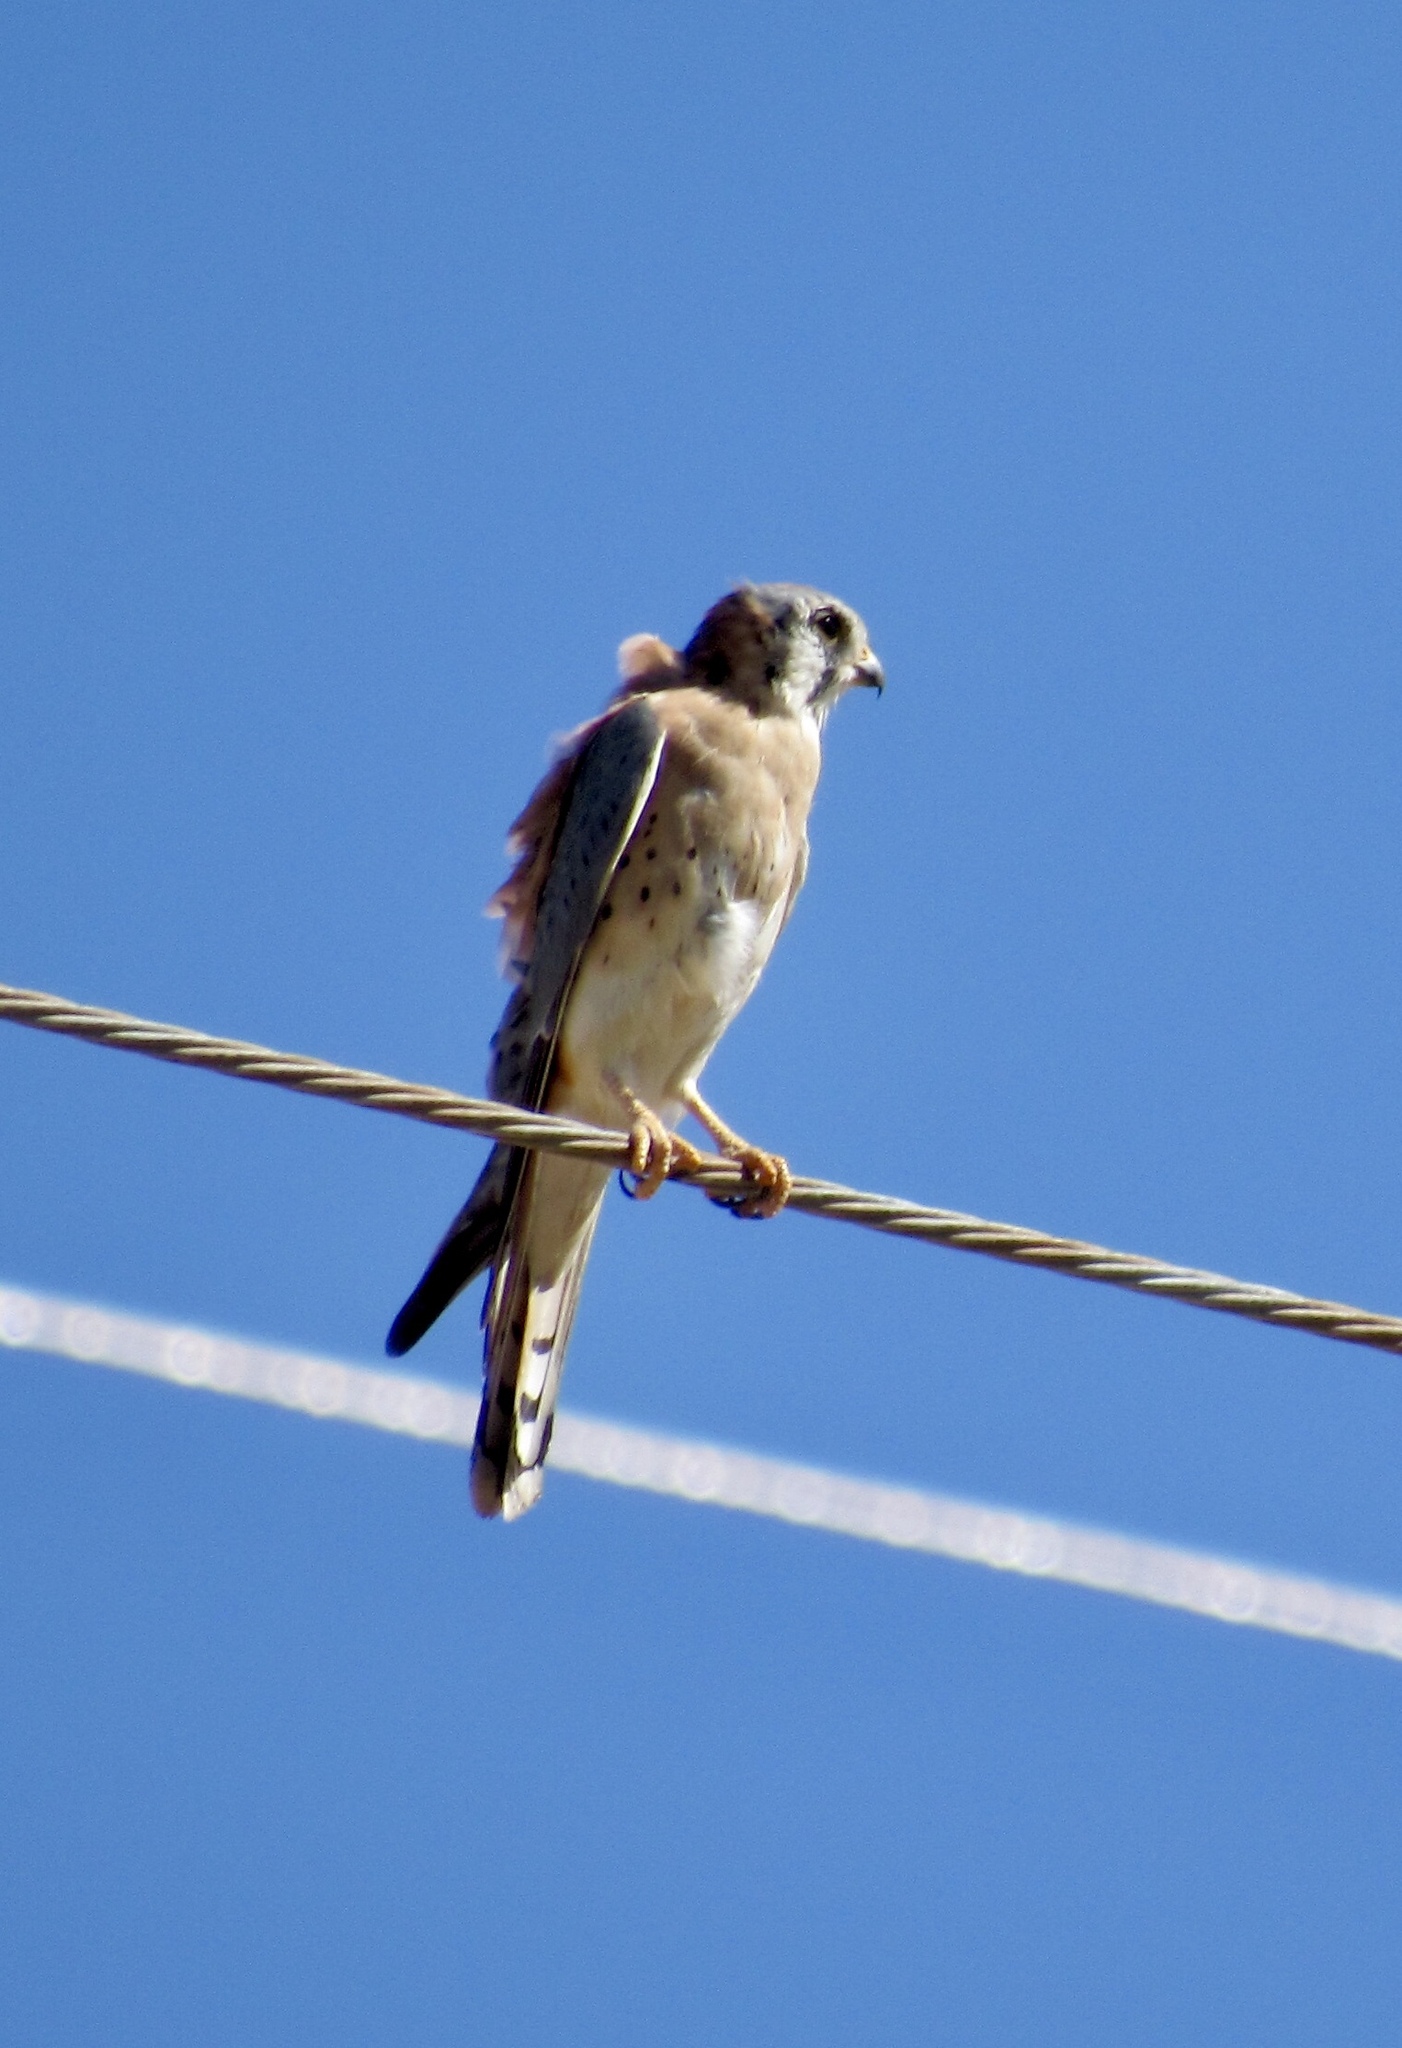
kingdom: Animalia
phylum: Chordata
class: Aves
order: Falconiformes
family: Falconidae
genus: Falco
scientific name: Falco sparverius
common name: American kestrel
